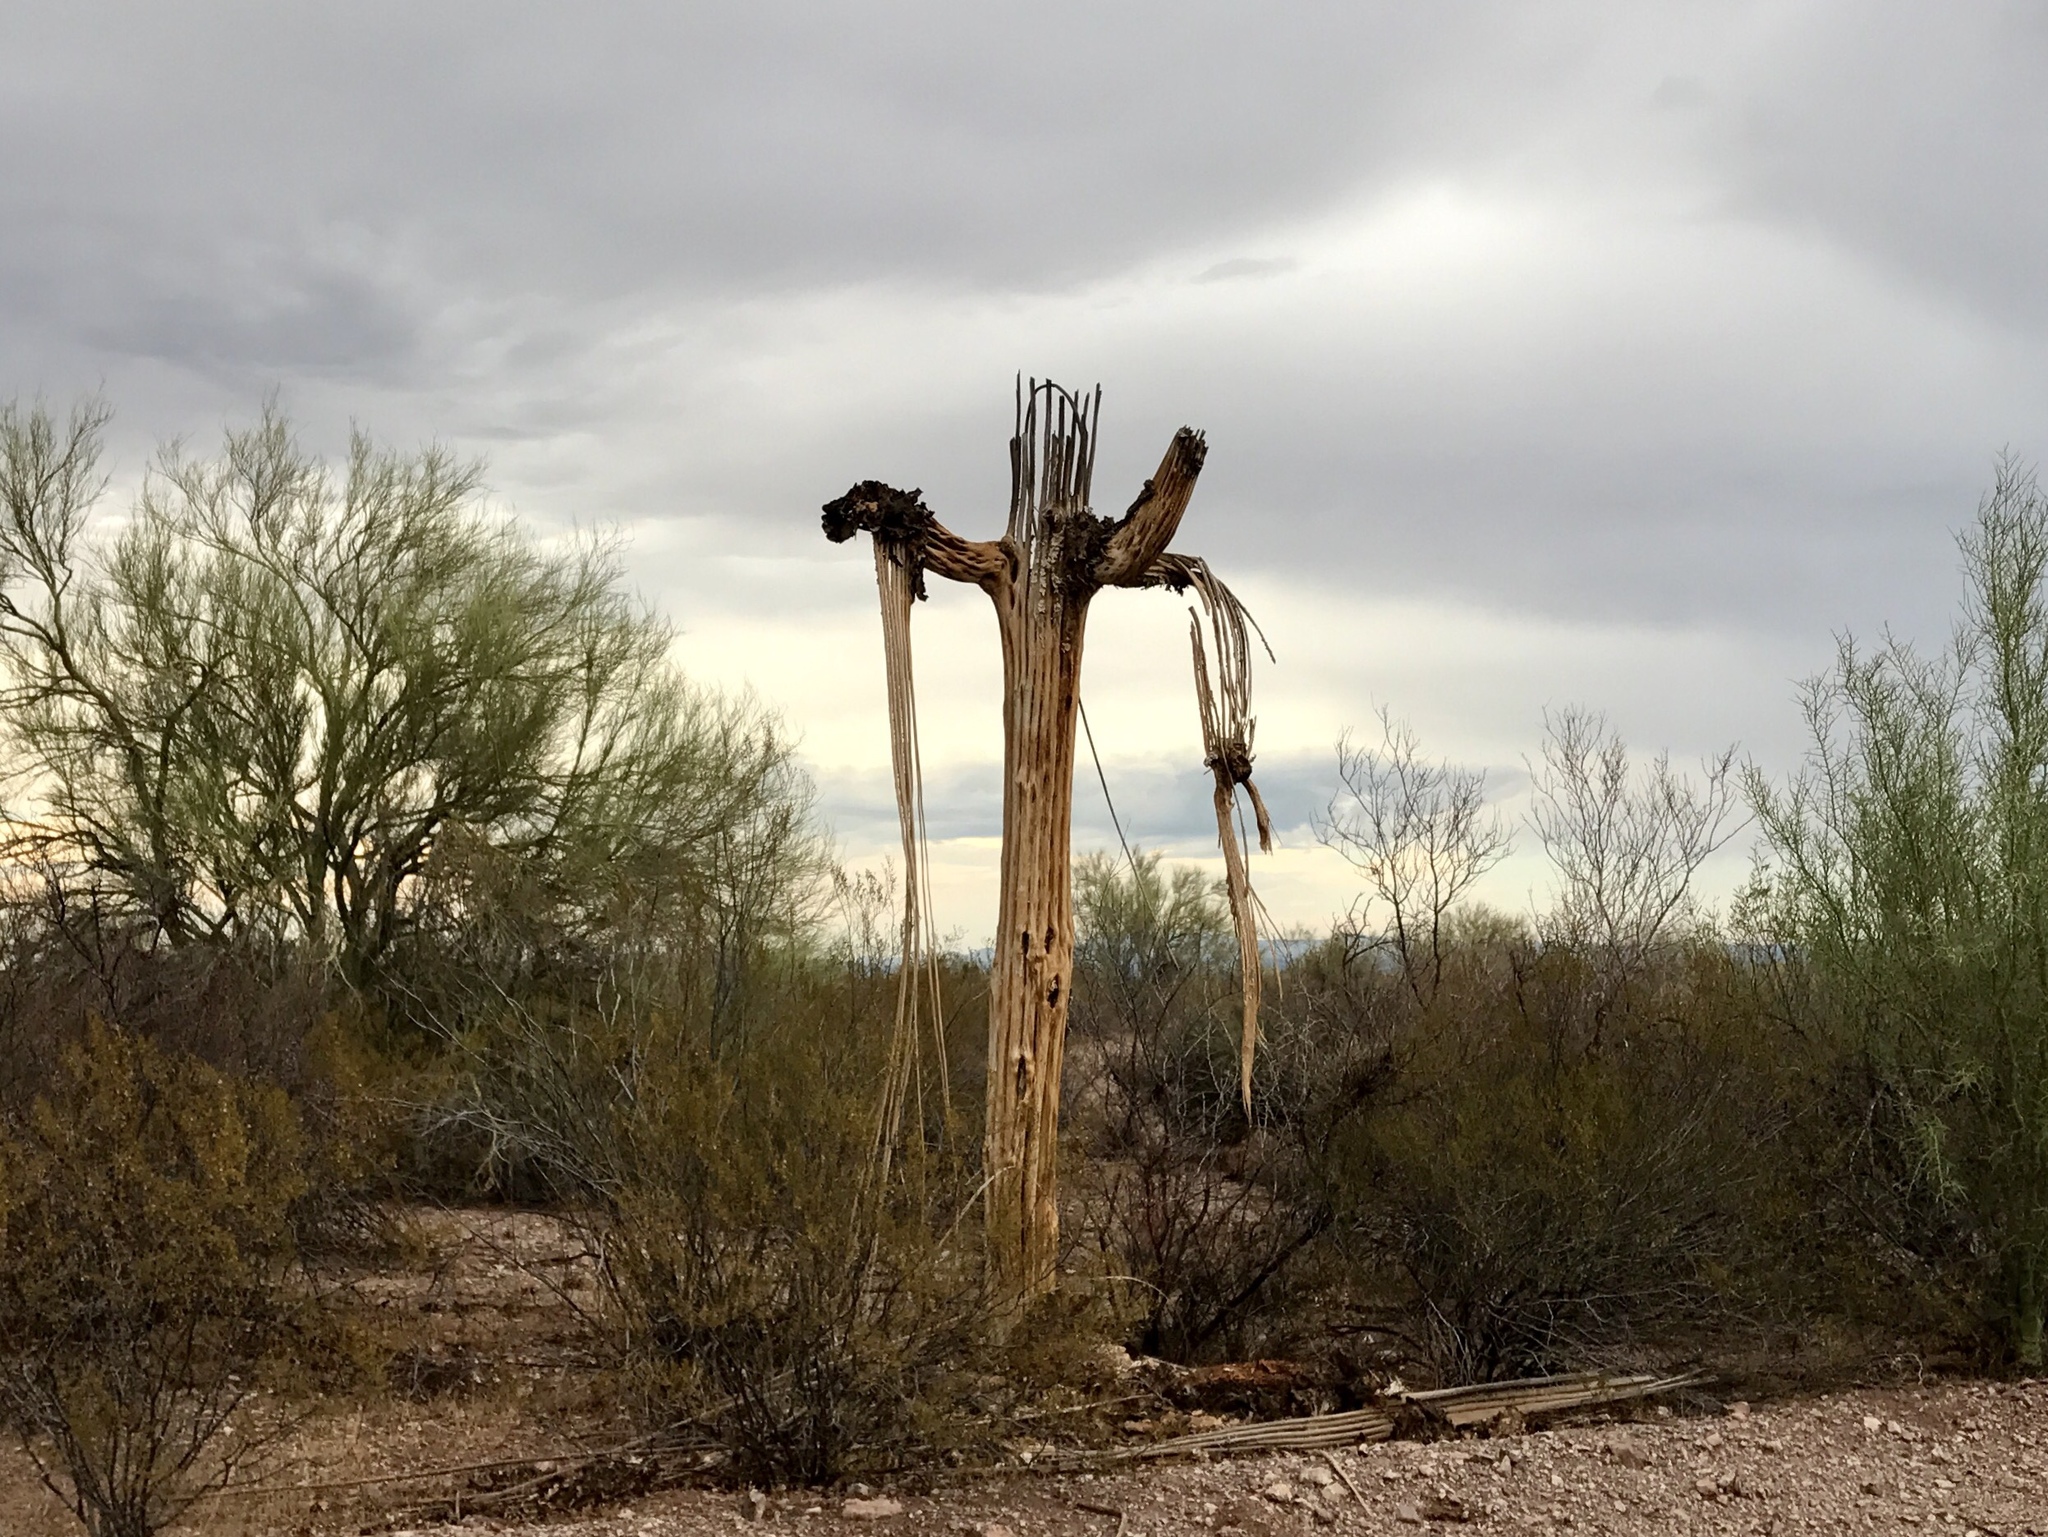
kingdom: Plantae
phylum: Tracheophyta
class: Magnoliopsida
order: Caryophyllales
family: Cactaceae
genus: Carnegiea
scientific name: Carnegiea gigantea
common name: Saguaro
